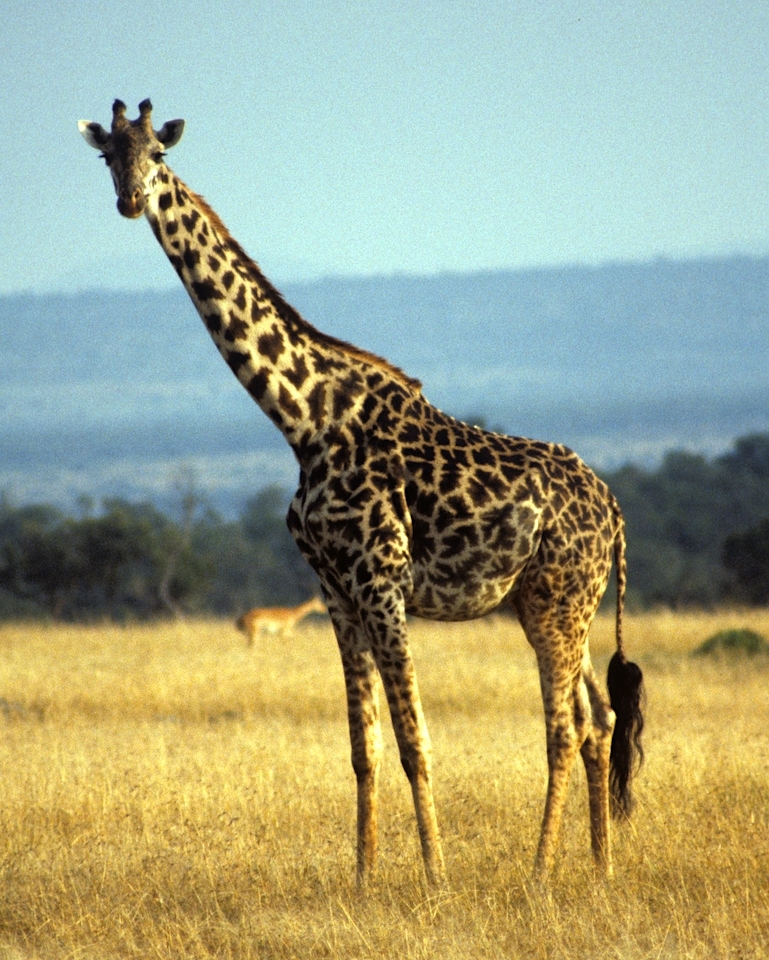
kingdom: Animalia
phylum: Chordata
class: Mammalia
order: Artiodactyla
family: Giraffidae
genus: Giraffa
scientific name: Giraffa tippelskirchi
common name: Masai giraffe
